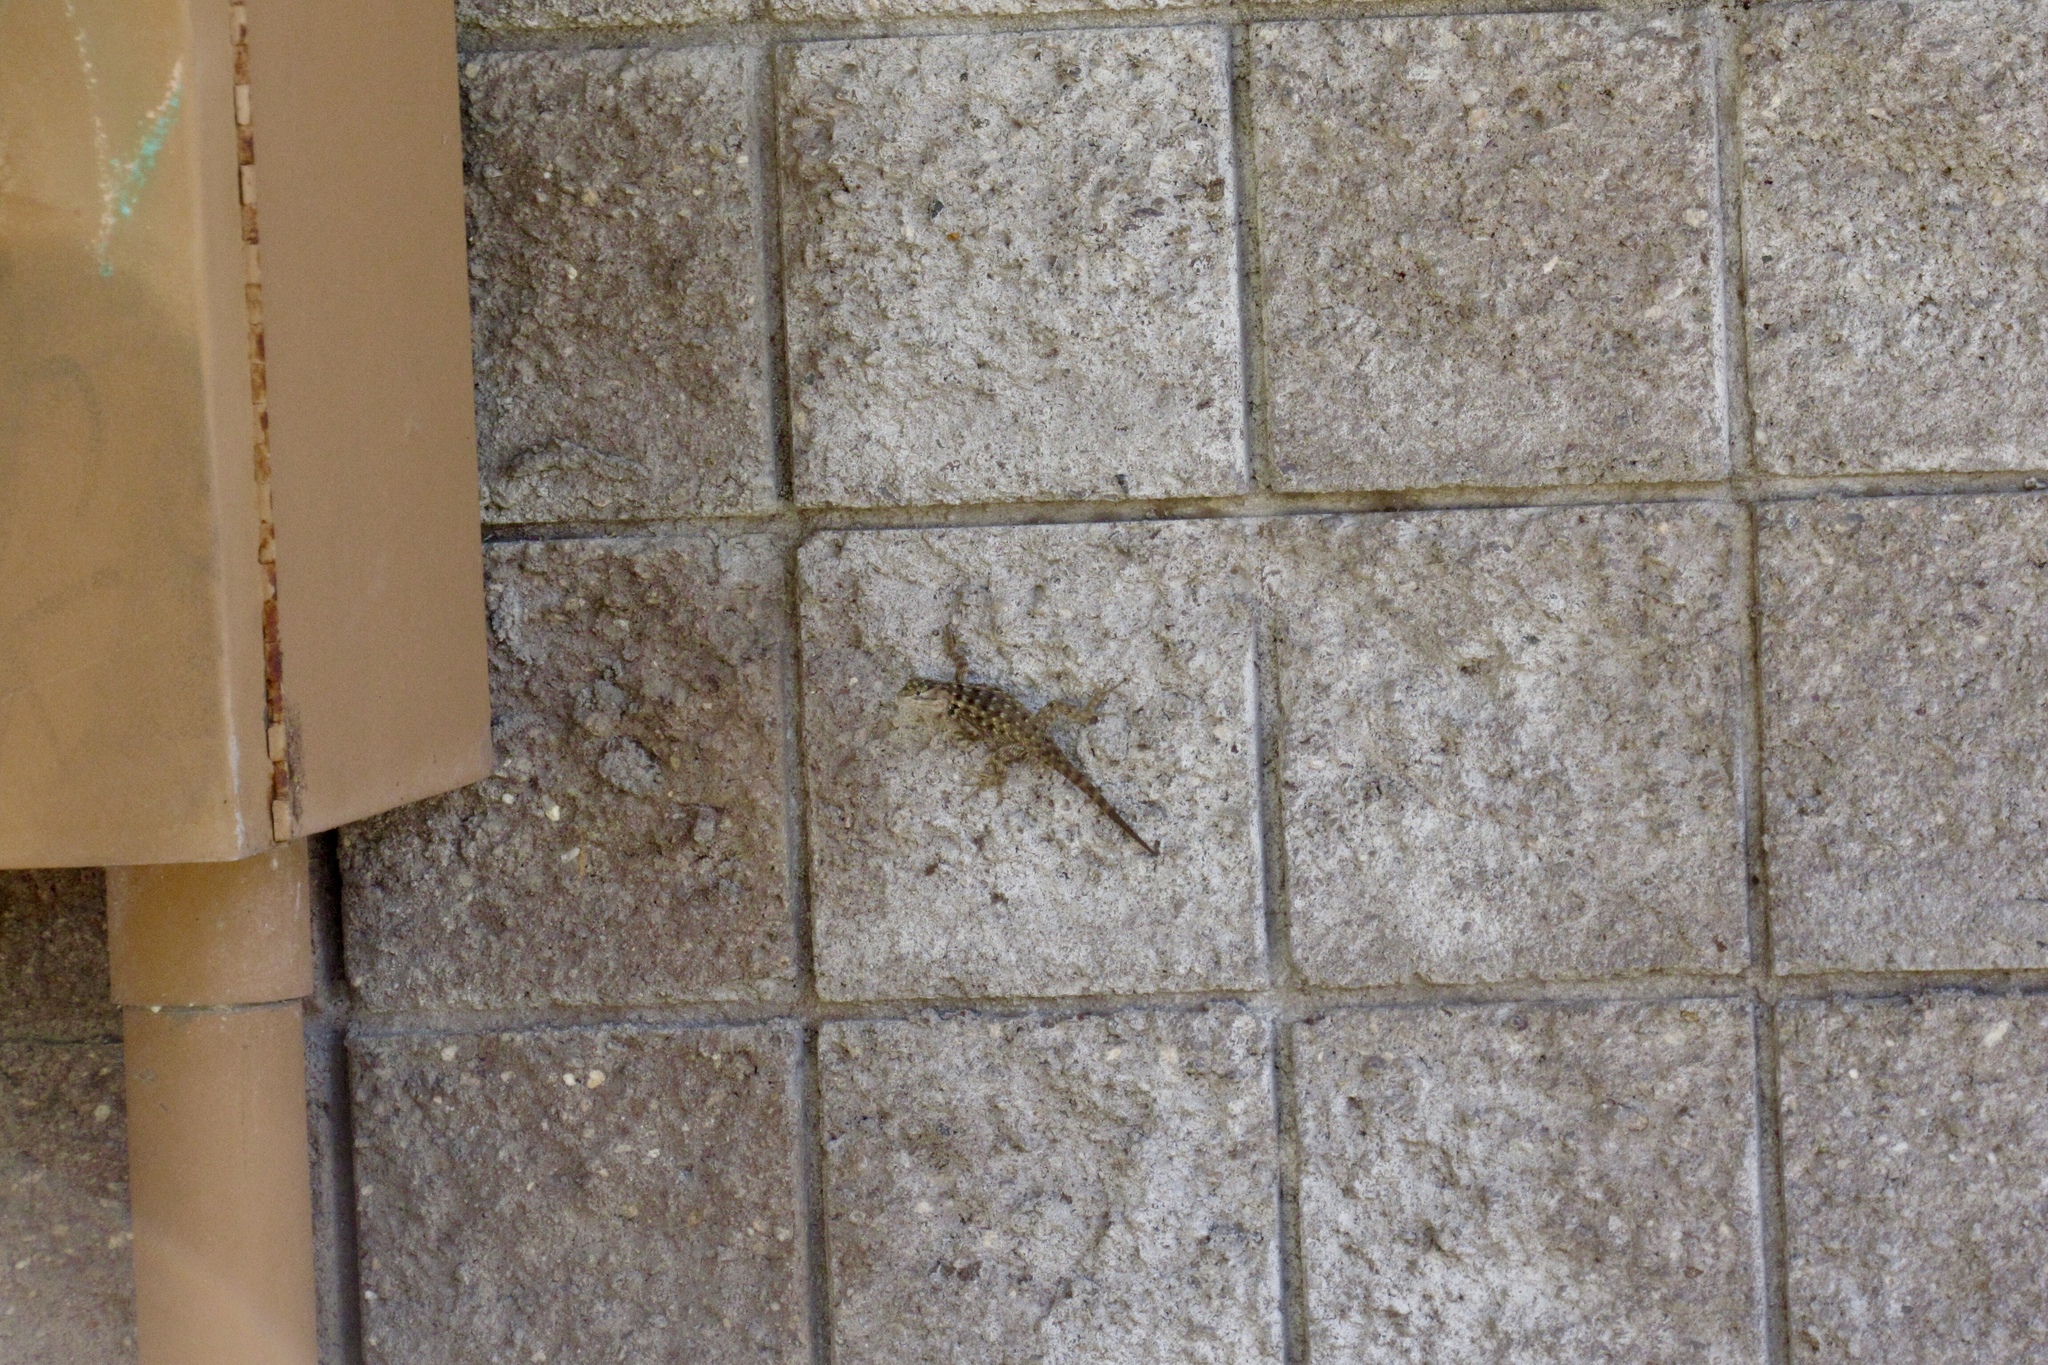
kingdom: Animalia
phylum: Chordata
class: Squamata
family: Phrynosomatidae
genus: Sceloporus
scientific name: Sceloporus magister
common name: Desert spiny lizard
